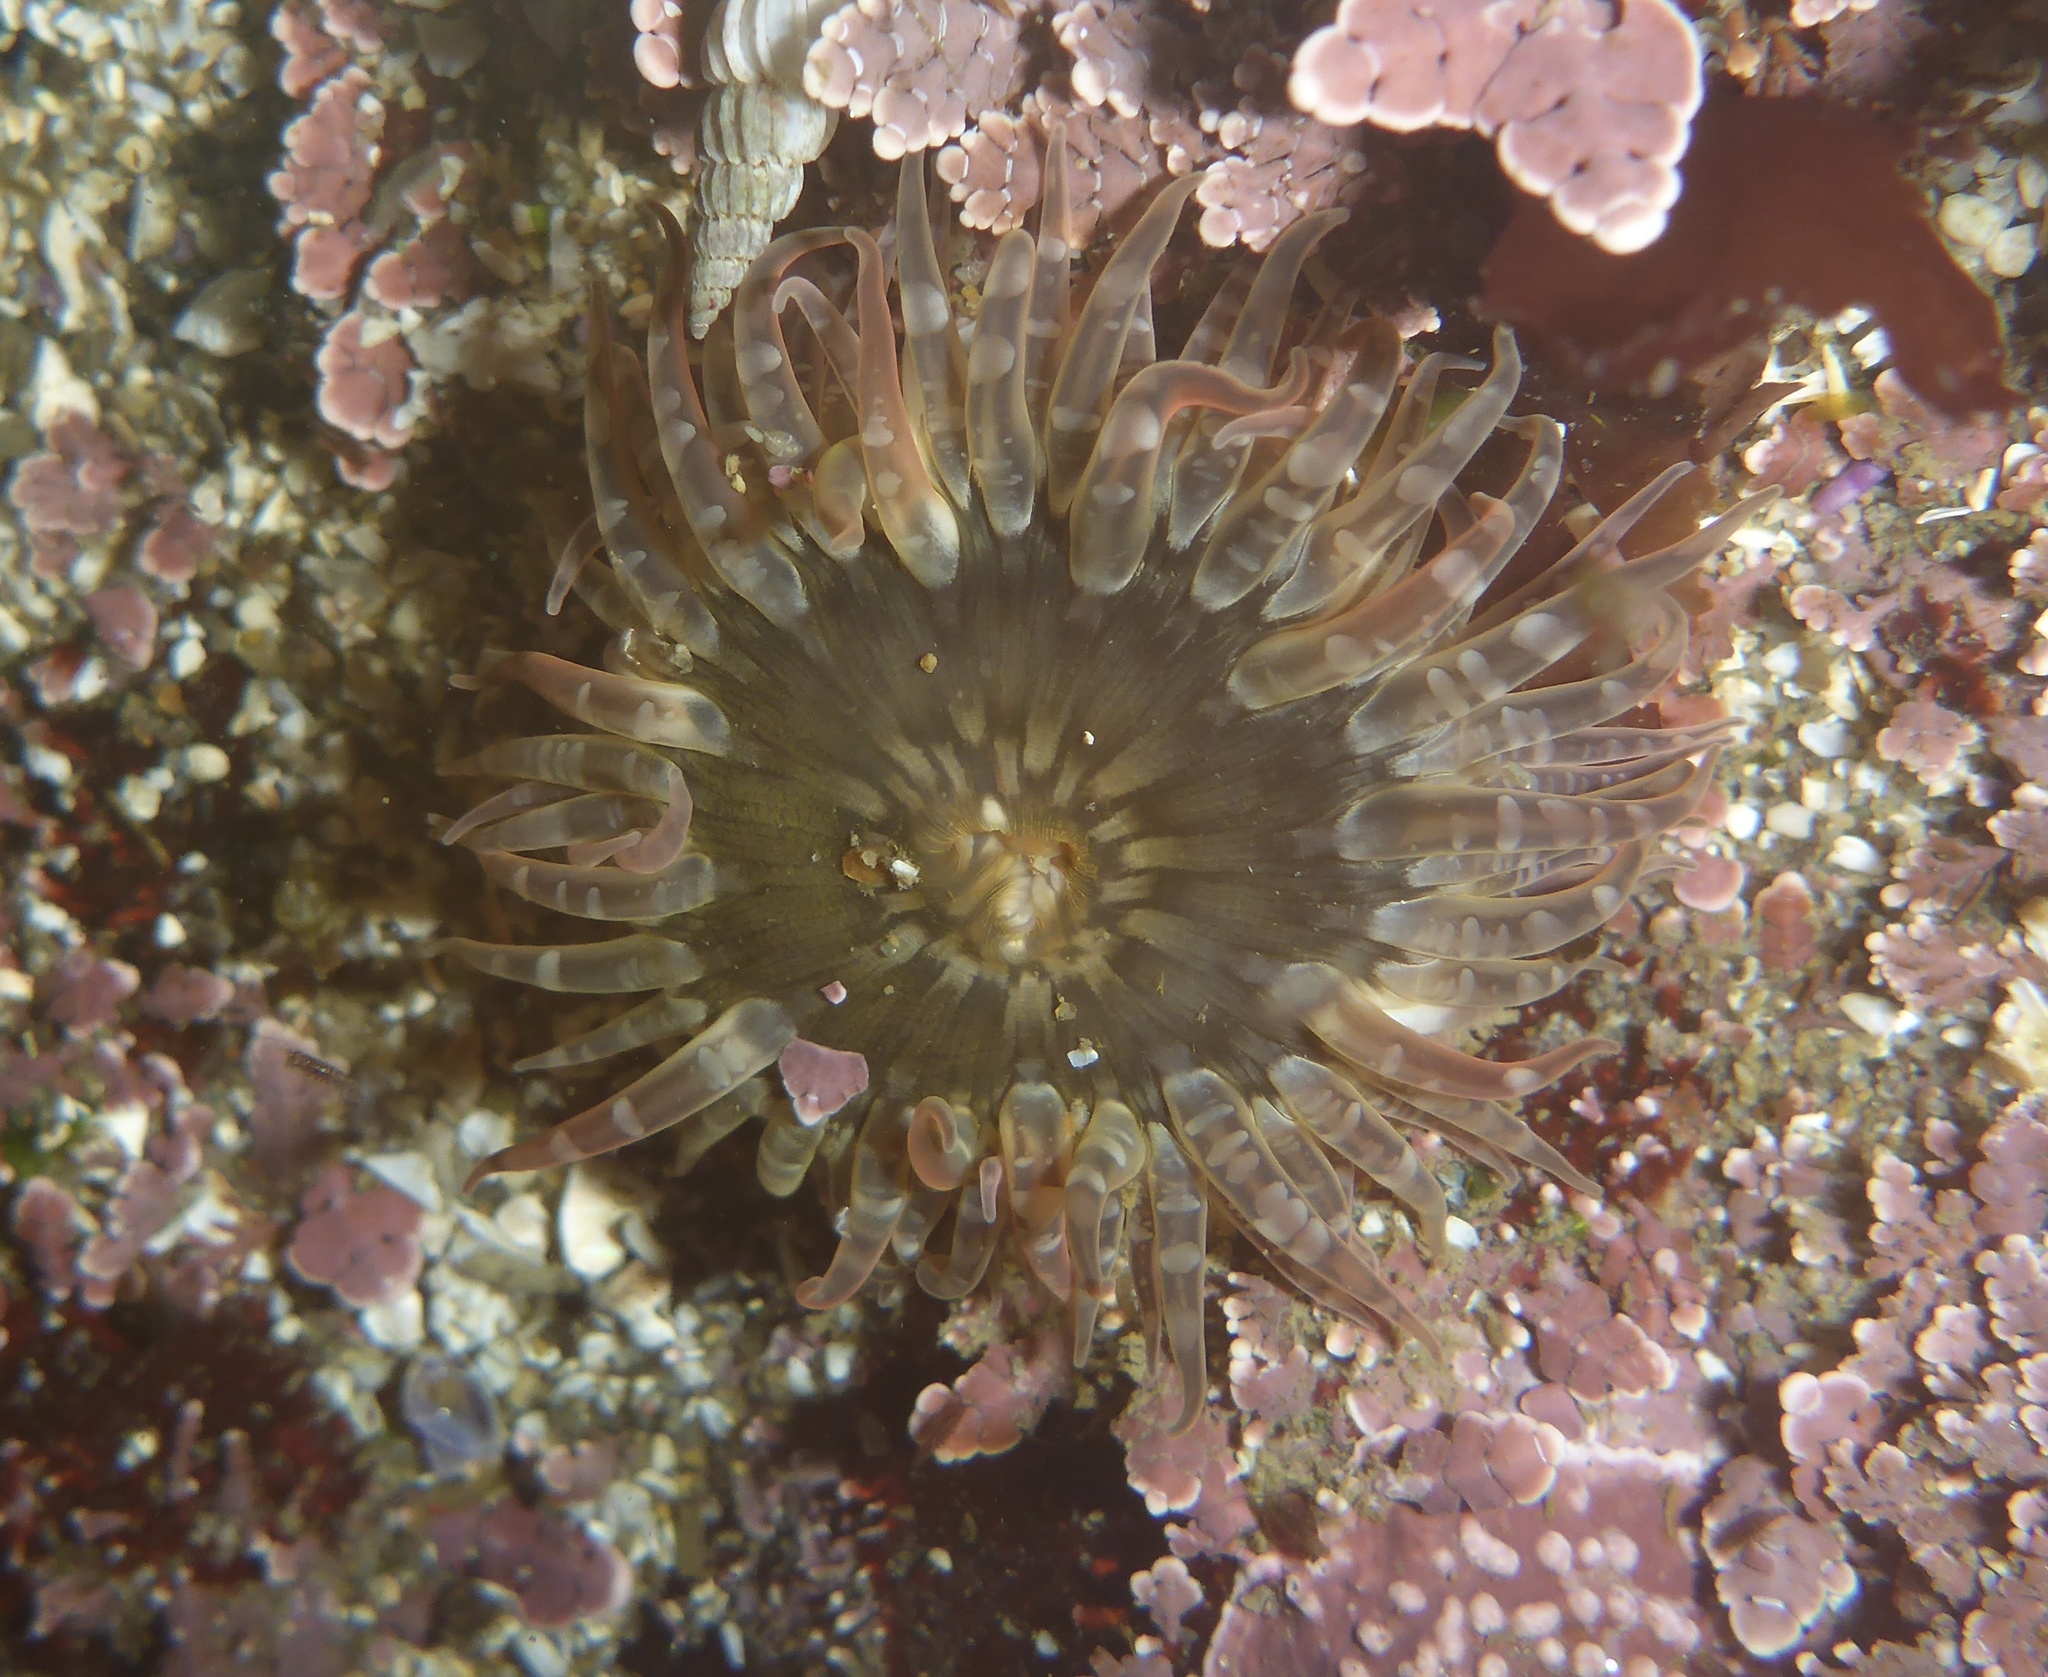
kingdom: Animalia
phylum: Cnidaria
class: Anthozoa
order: Actiniaria
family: Actiniidae
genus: Anthopleura
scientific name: Anthopleura artemisia
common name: Buried sea anemone
